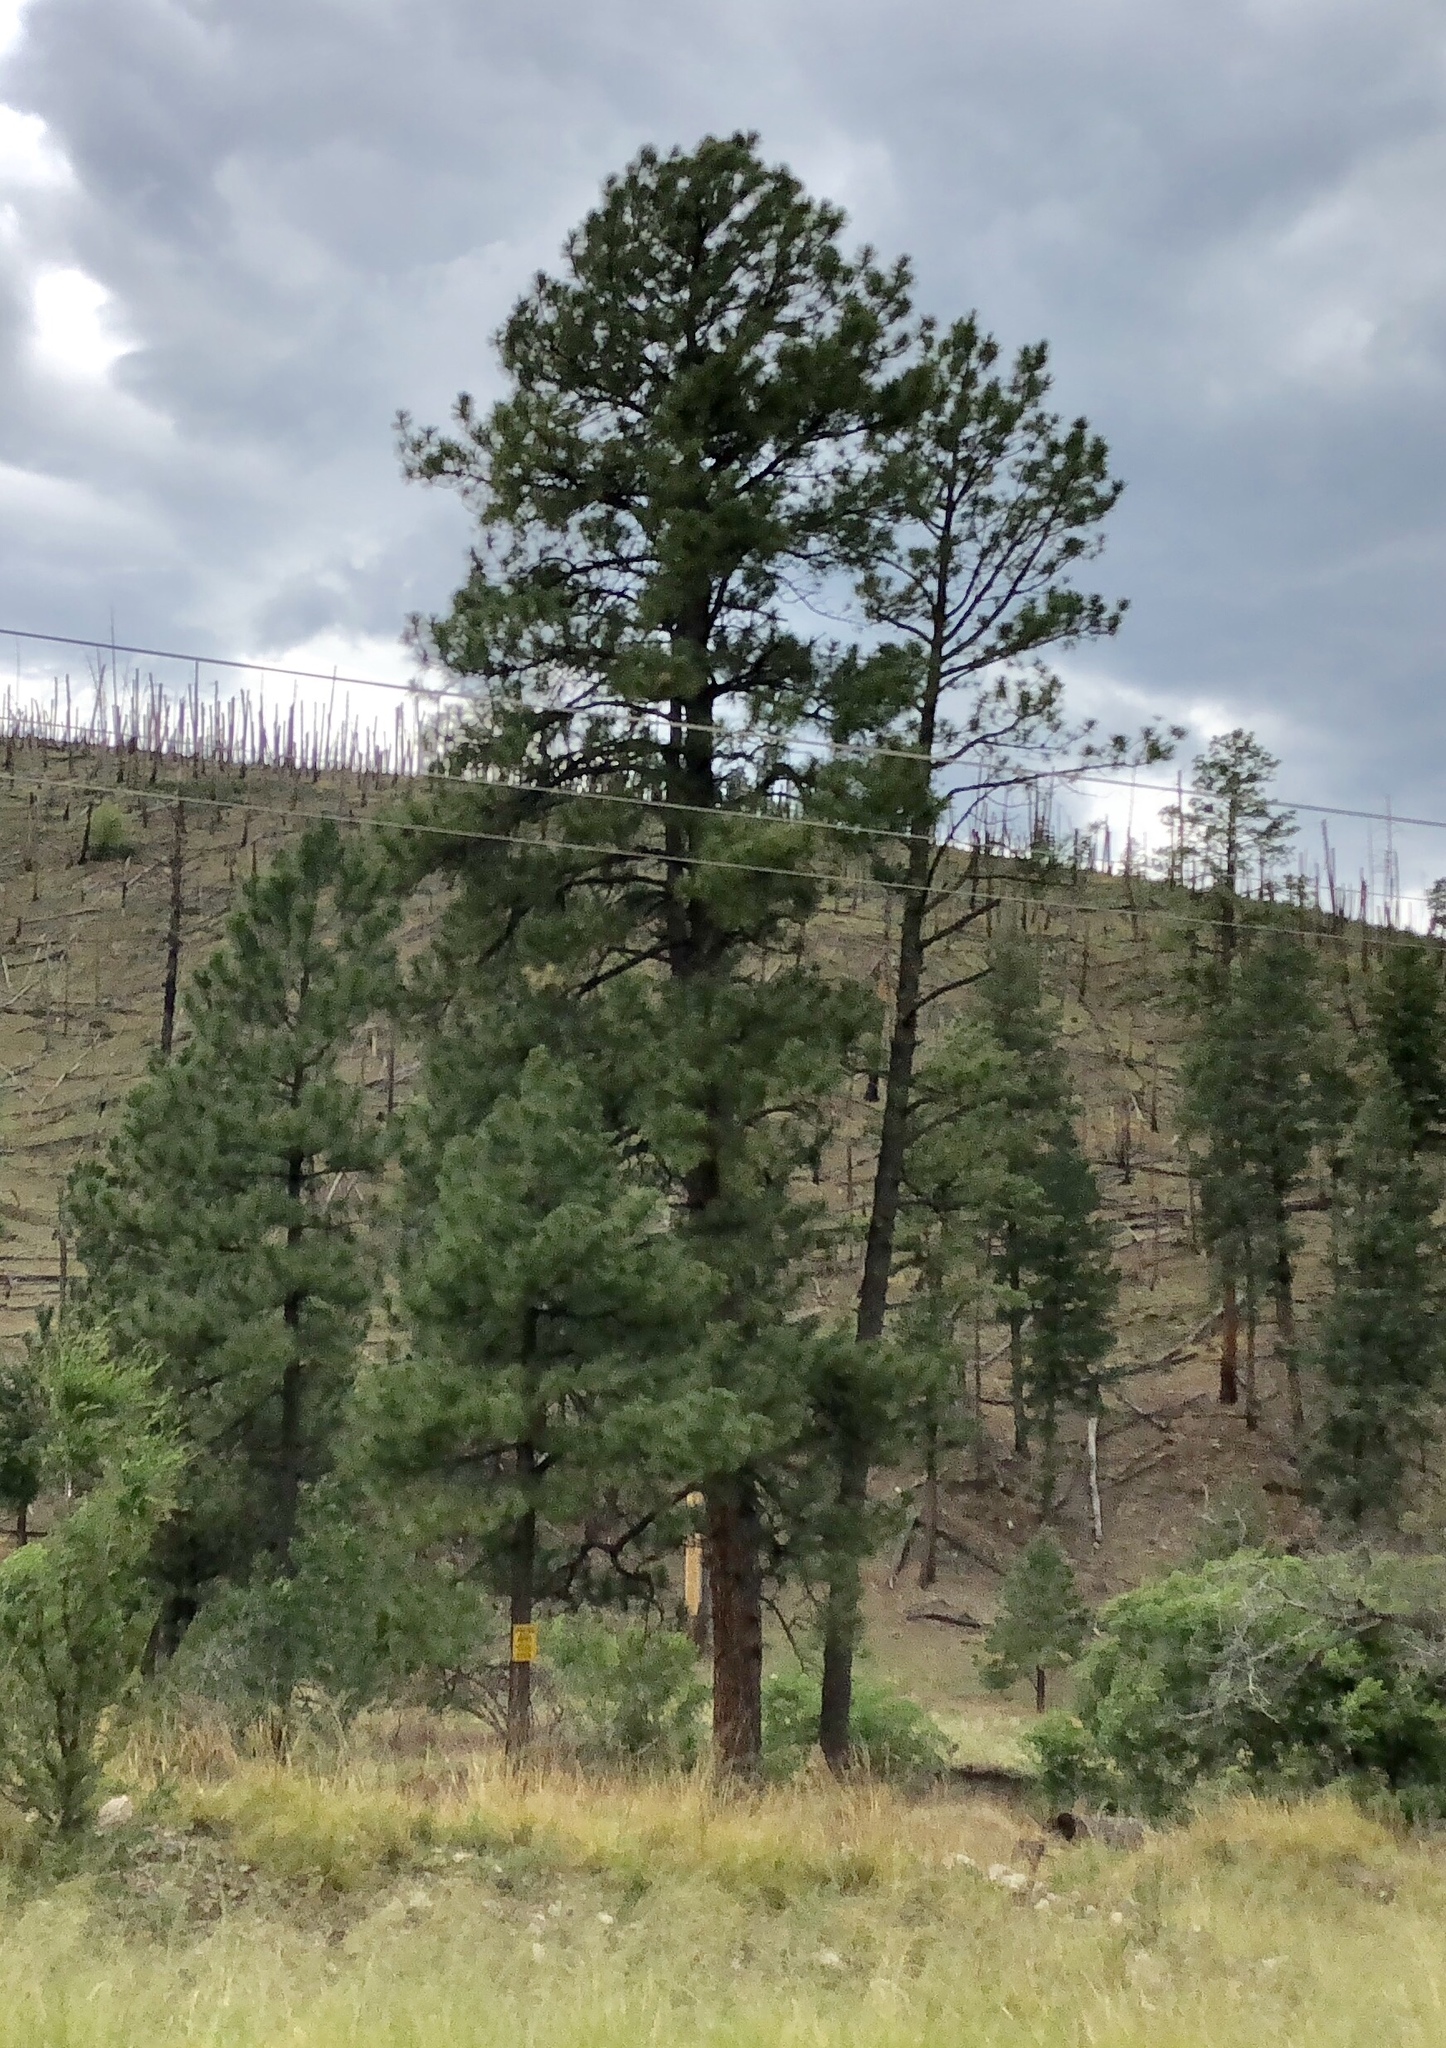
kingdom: Plantae
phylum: Tracheophyta
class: Pinopsida
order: Pinales
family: Pinaceae
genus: Pinus
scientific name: Pinus ponderosa
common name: Western yellow-pine
